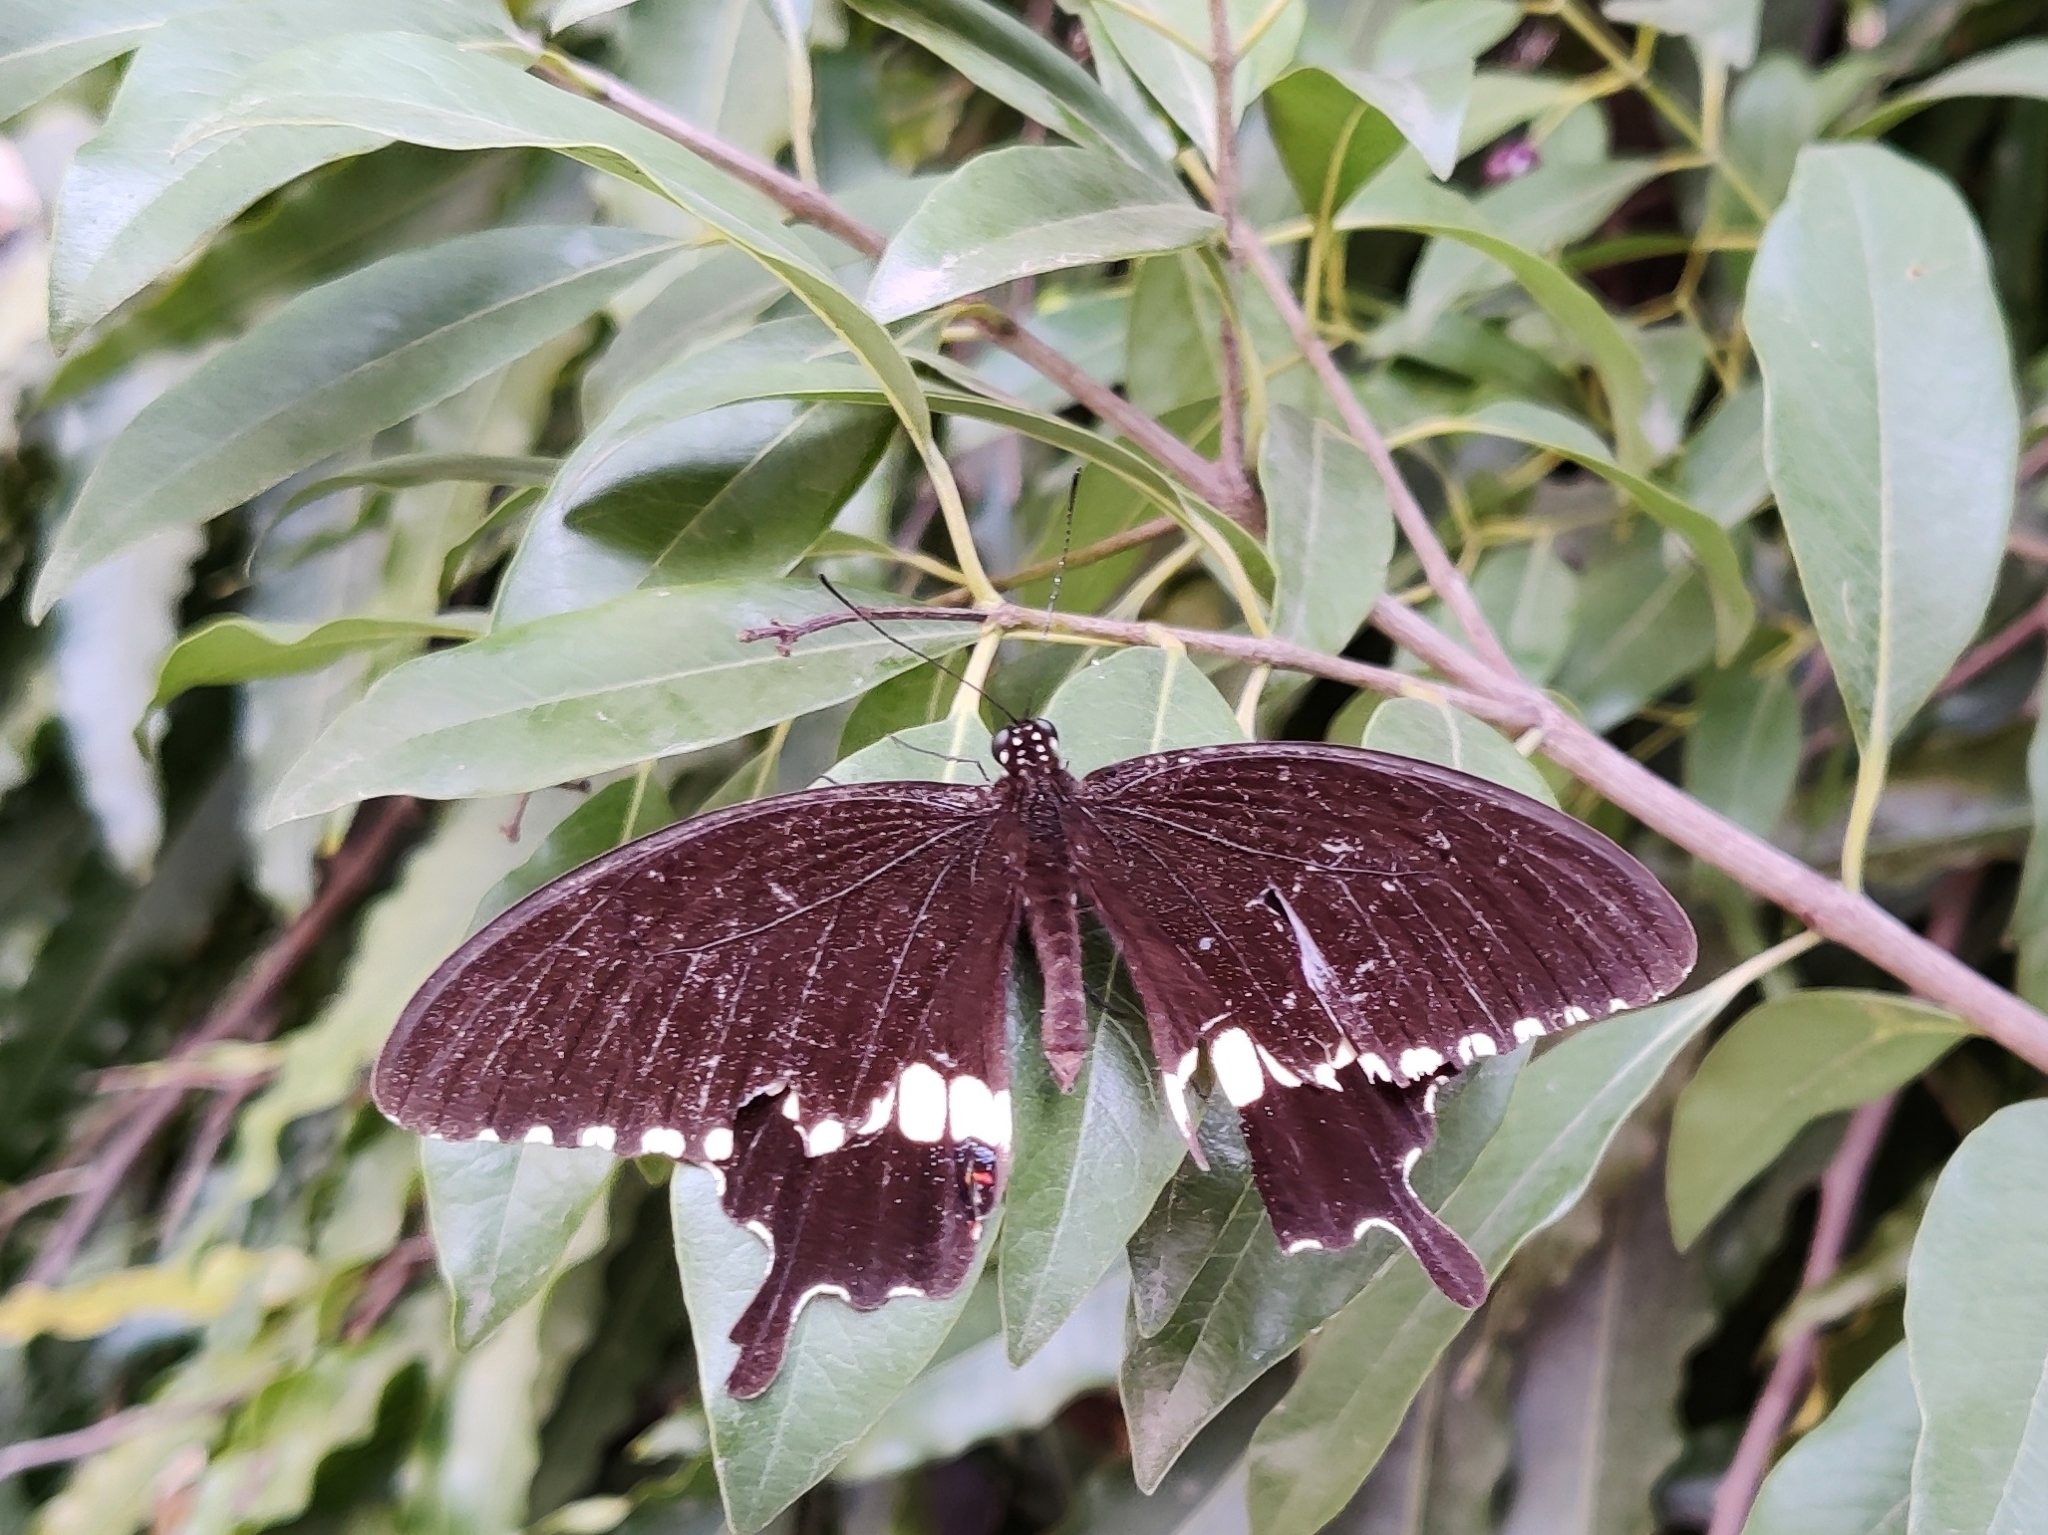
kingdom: Animalia
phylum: Arthropoda
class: Insecta
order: Lepidoptera
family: Papilionidae
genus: Papilio
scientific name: Papilio polytes
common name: Common mormon
